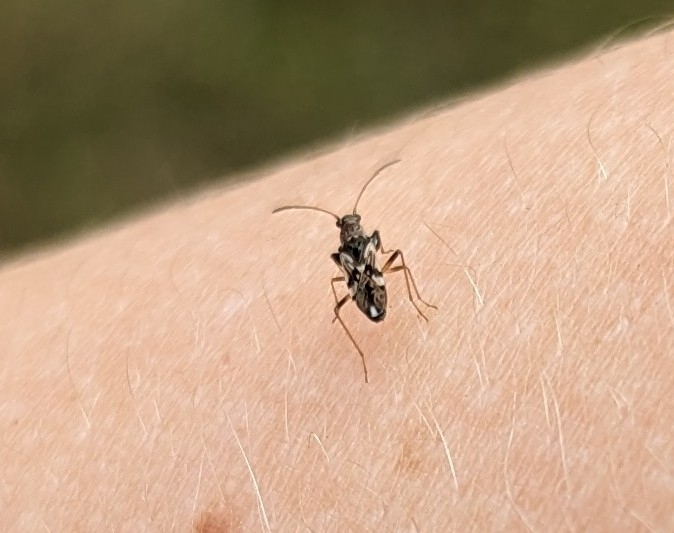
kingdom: Animalia
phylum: Arthropoda
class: Insecta
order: Hemiptera
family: Rhyparochromidae
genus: Neopamera
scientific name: Neopamera bilobata
